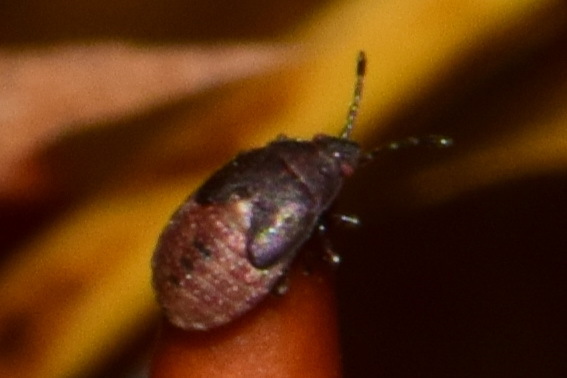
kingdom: Animalia
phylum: Arthropoda
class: Insecta
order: Hemiptera
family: Lygaeidae
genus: Kleidocerys
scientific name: Kleidocerys resedae
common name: Birch catkin bug
